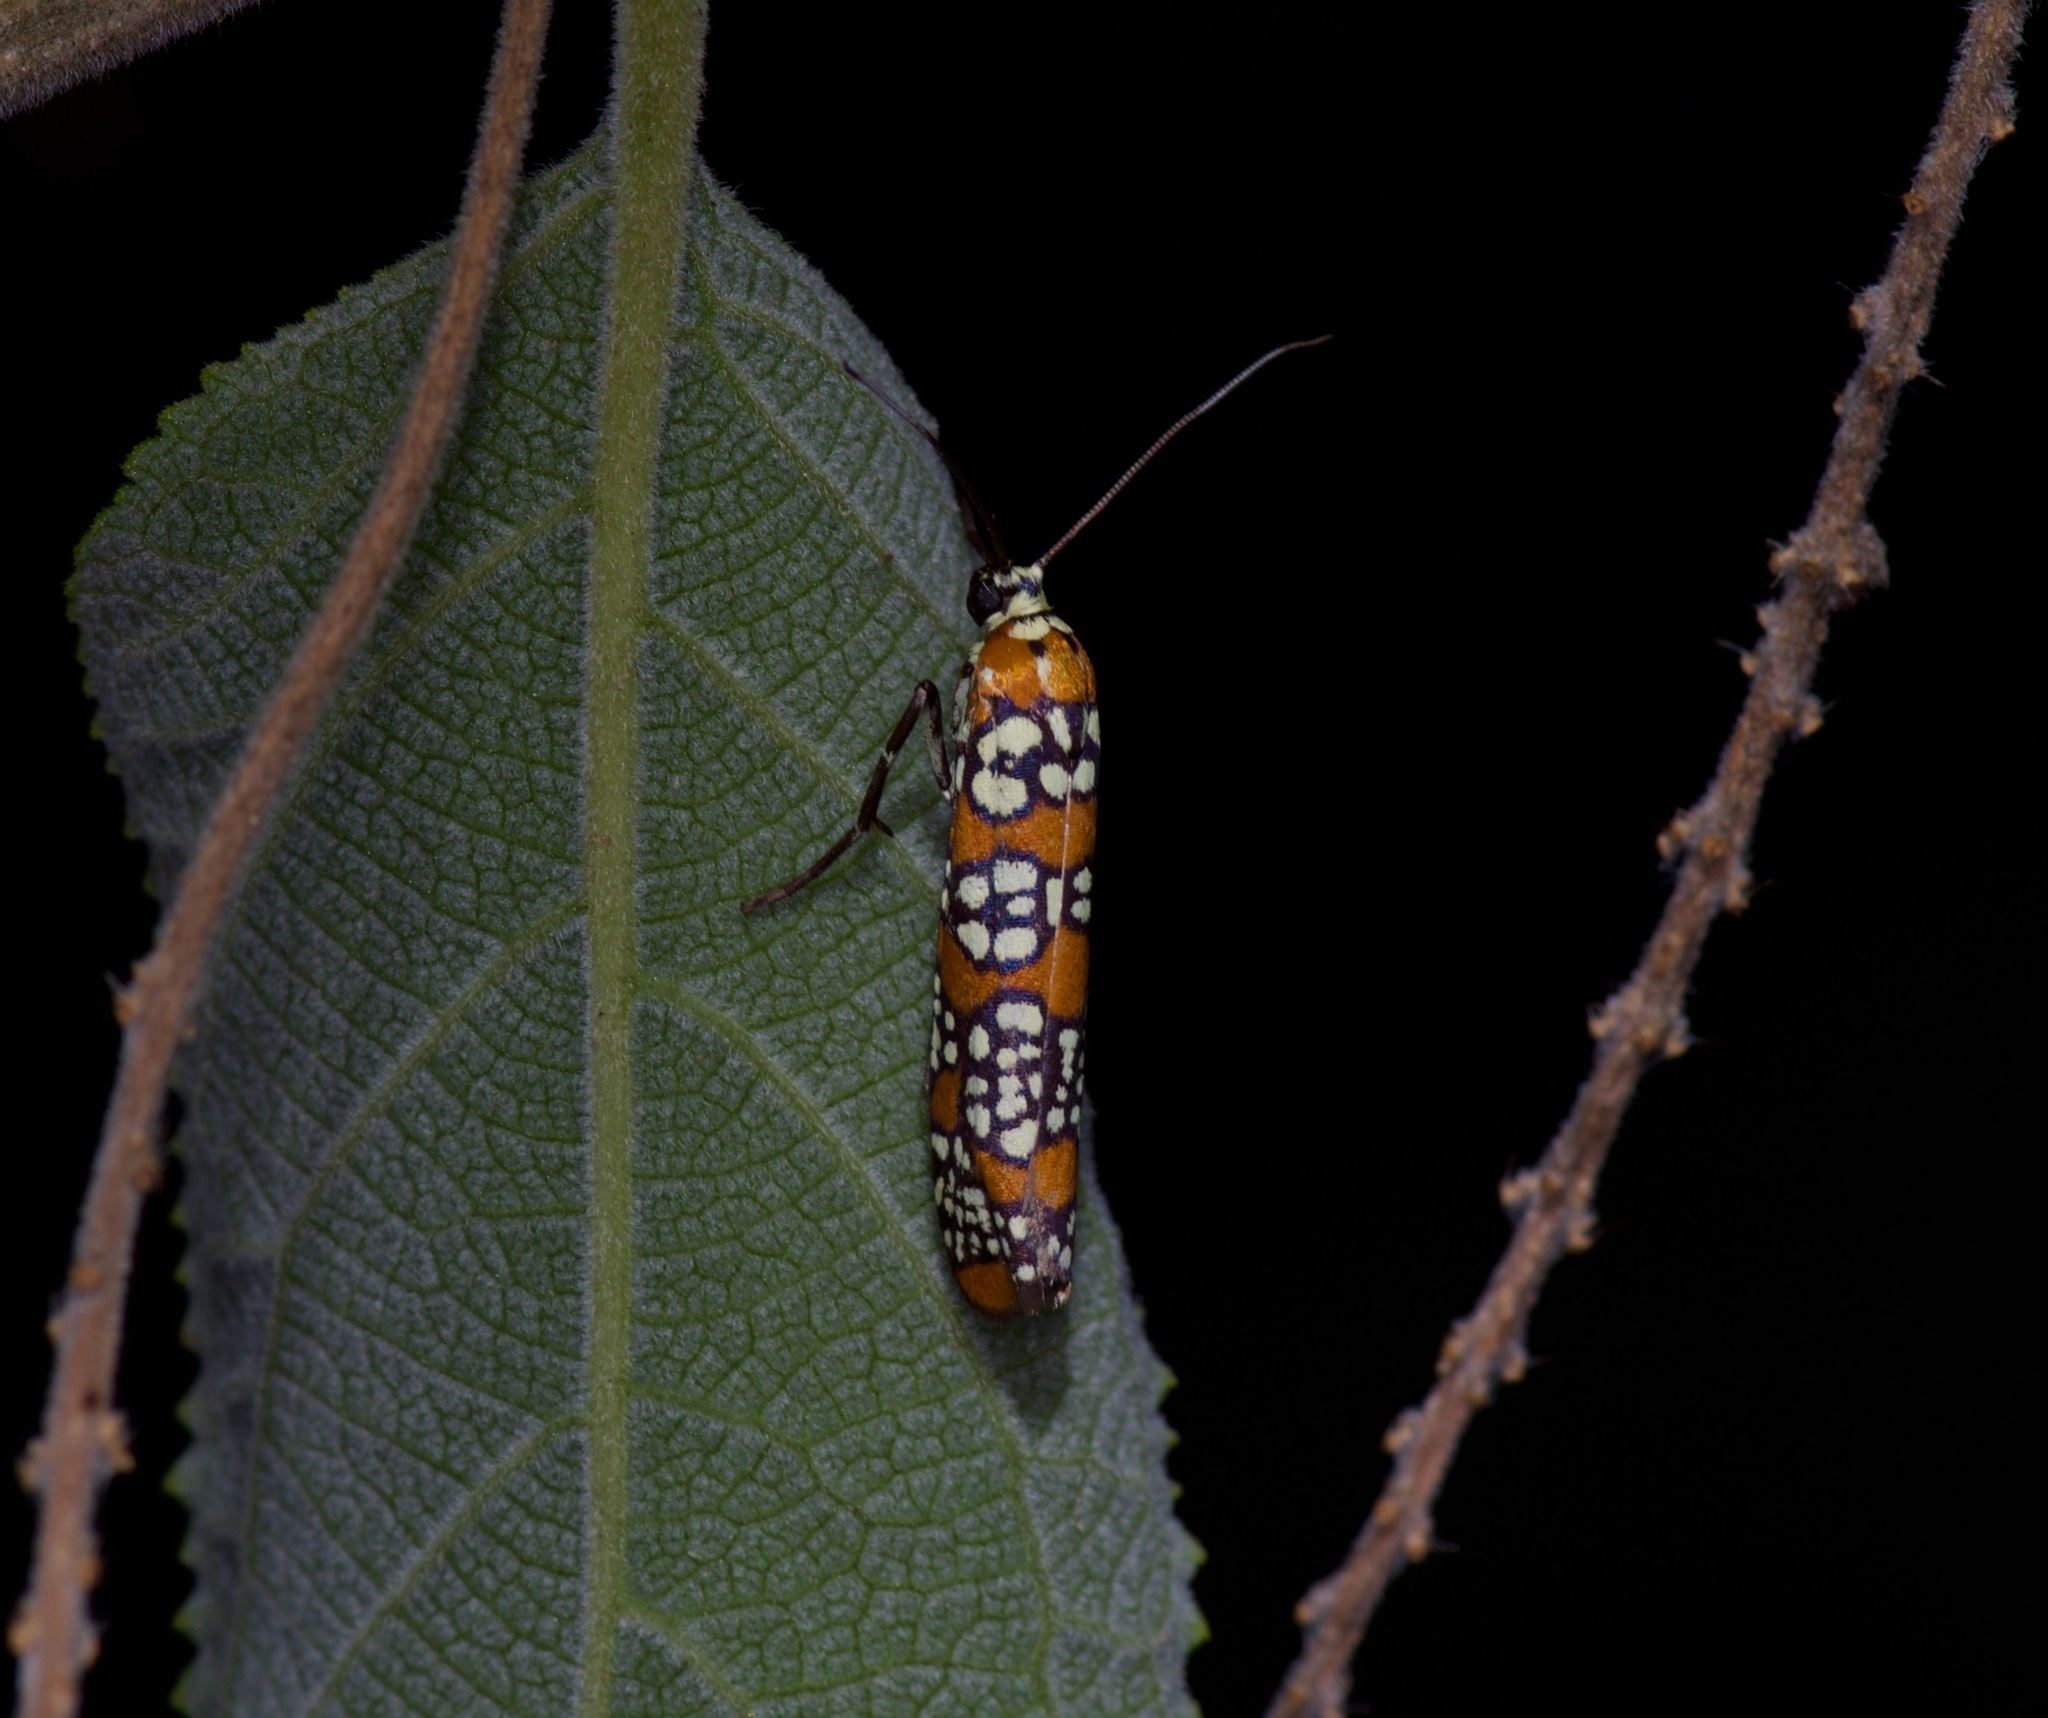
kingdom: Animalia
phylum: Arthropoda
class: Insecta
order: Lepidoptera
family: Attevidae
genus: Atteva
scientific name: Atteva punctella
